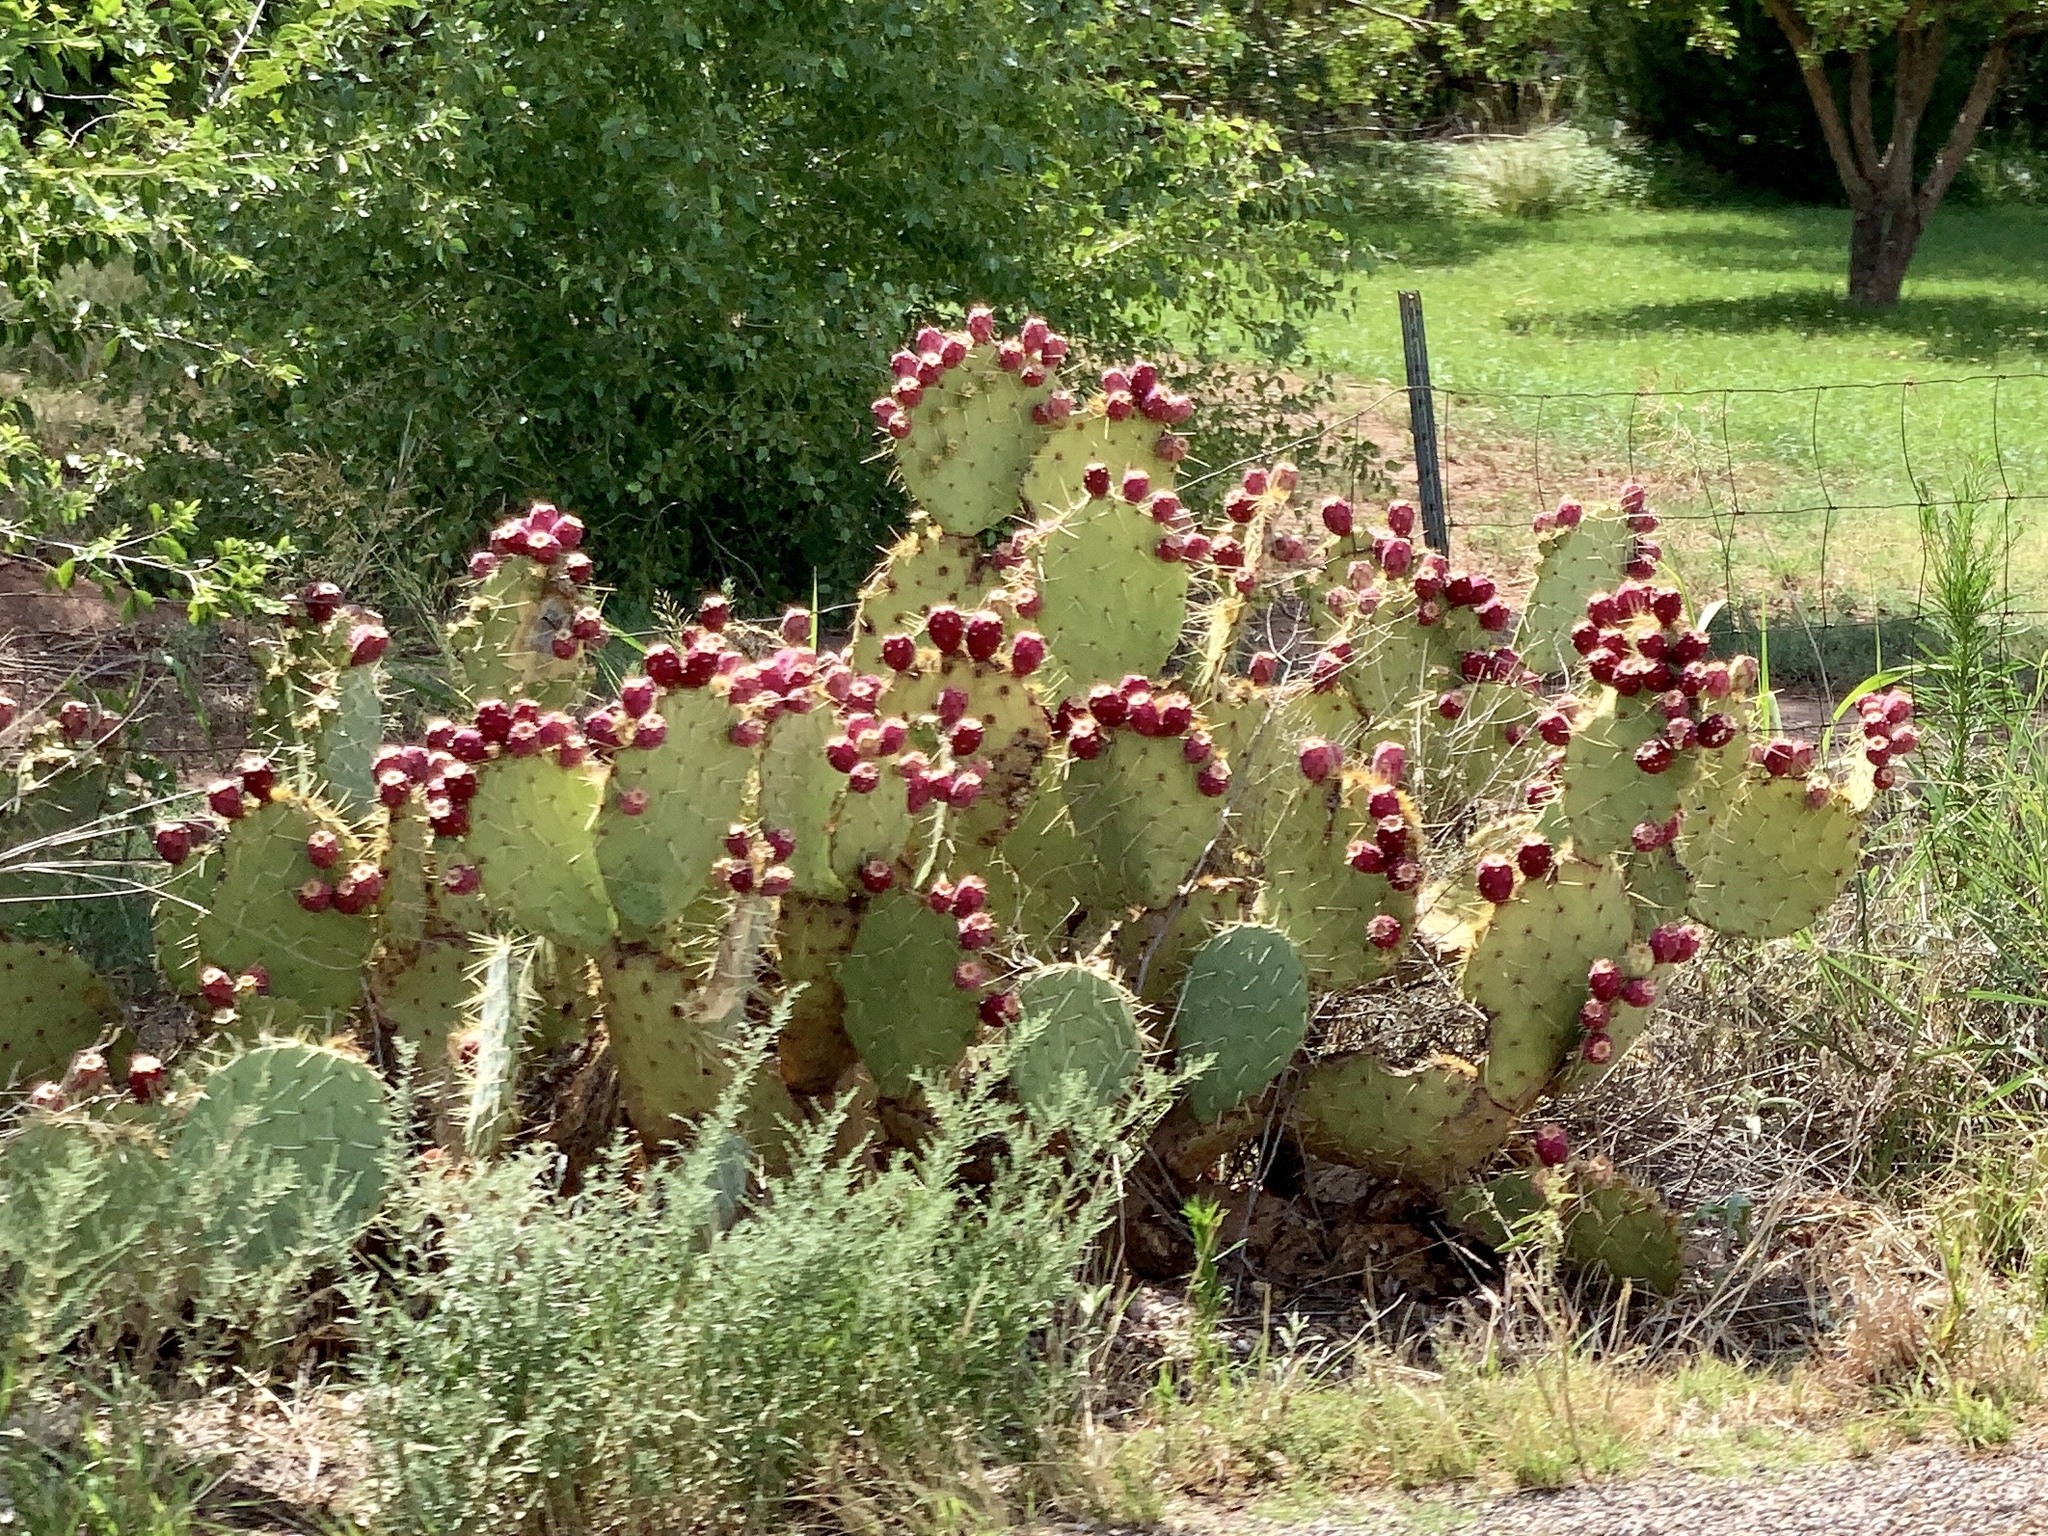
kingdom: Plantae
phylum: Tracheophyta
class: Magnoliopsida
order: Caryophyllales
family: Cactaceae
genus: Opuntia
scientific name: Opuntia engelmannii
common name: Cactus-apple
